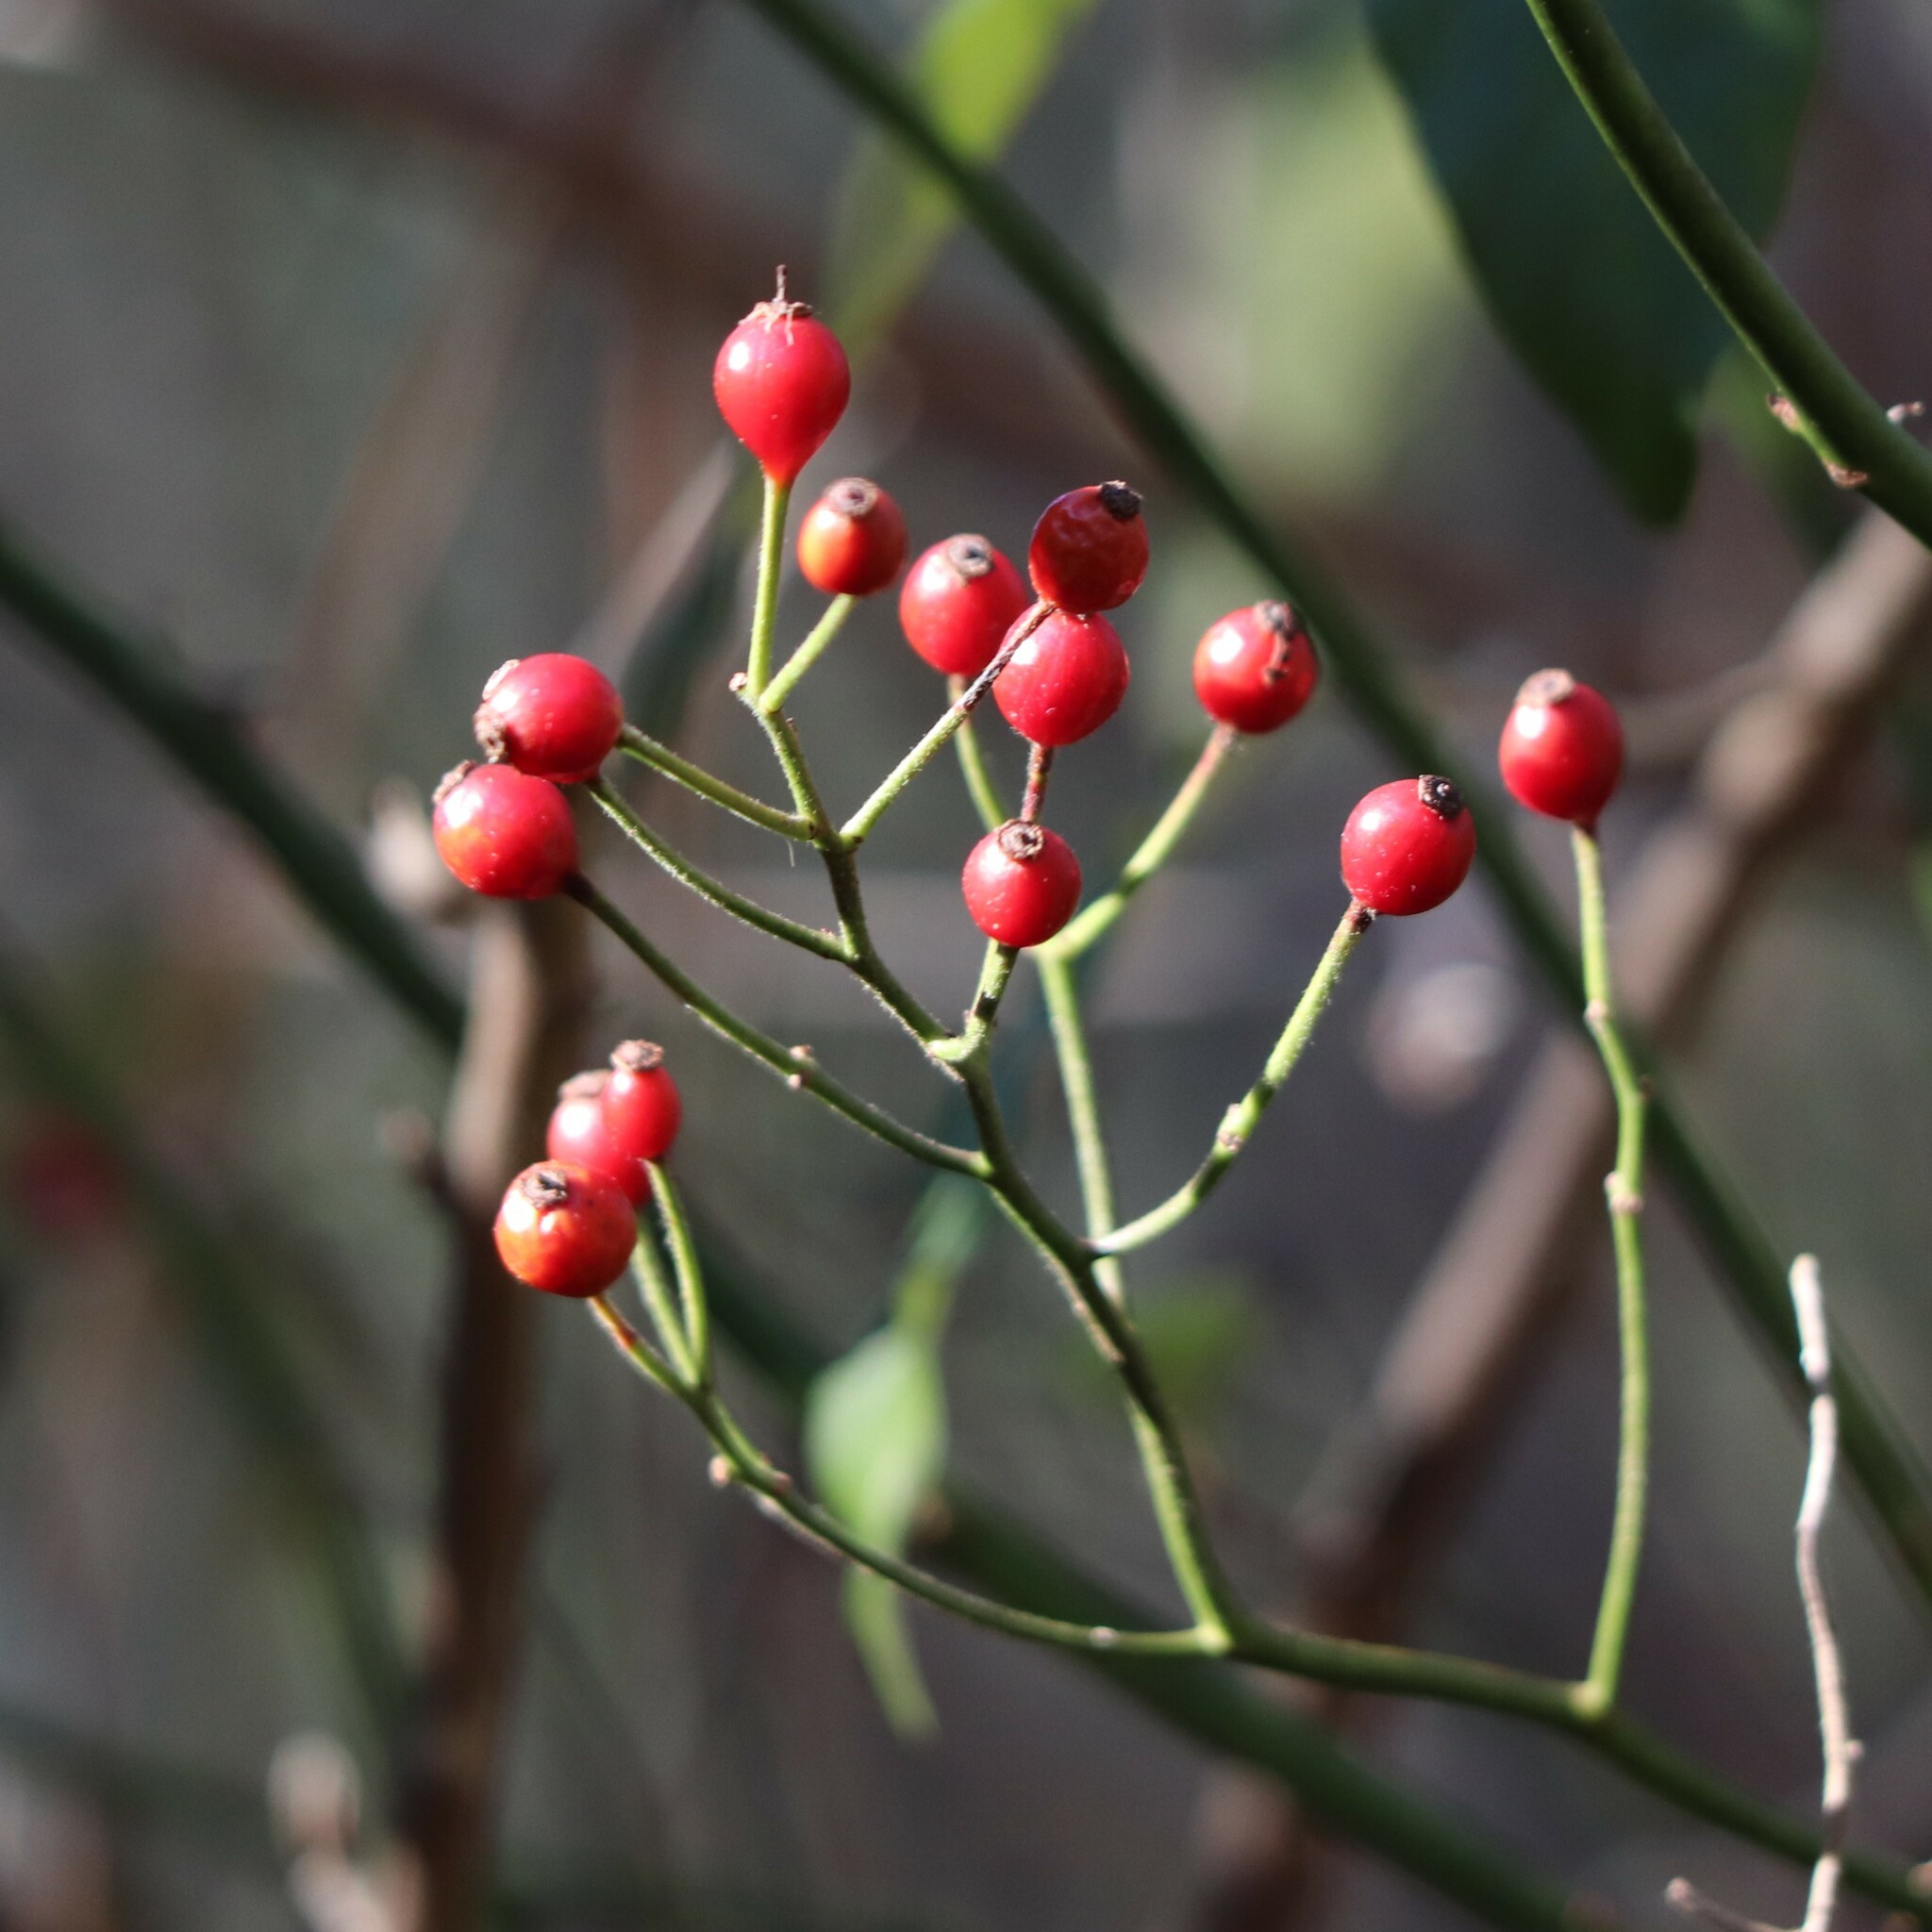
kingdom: Plantae
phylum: Tracheophyta
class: Magnoliopsida
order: Rosales
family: Rosaceae
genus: Rosa
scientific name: Rosa multiflora
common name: Multiflora rose
